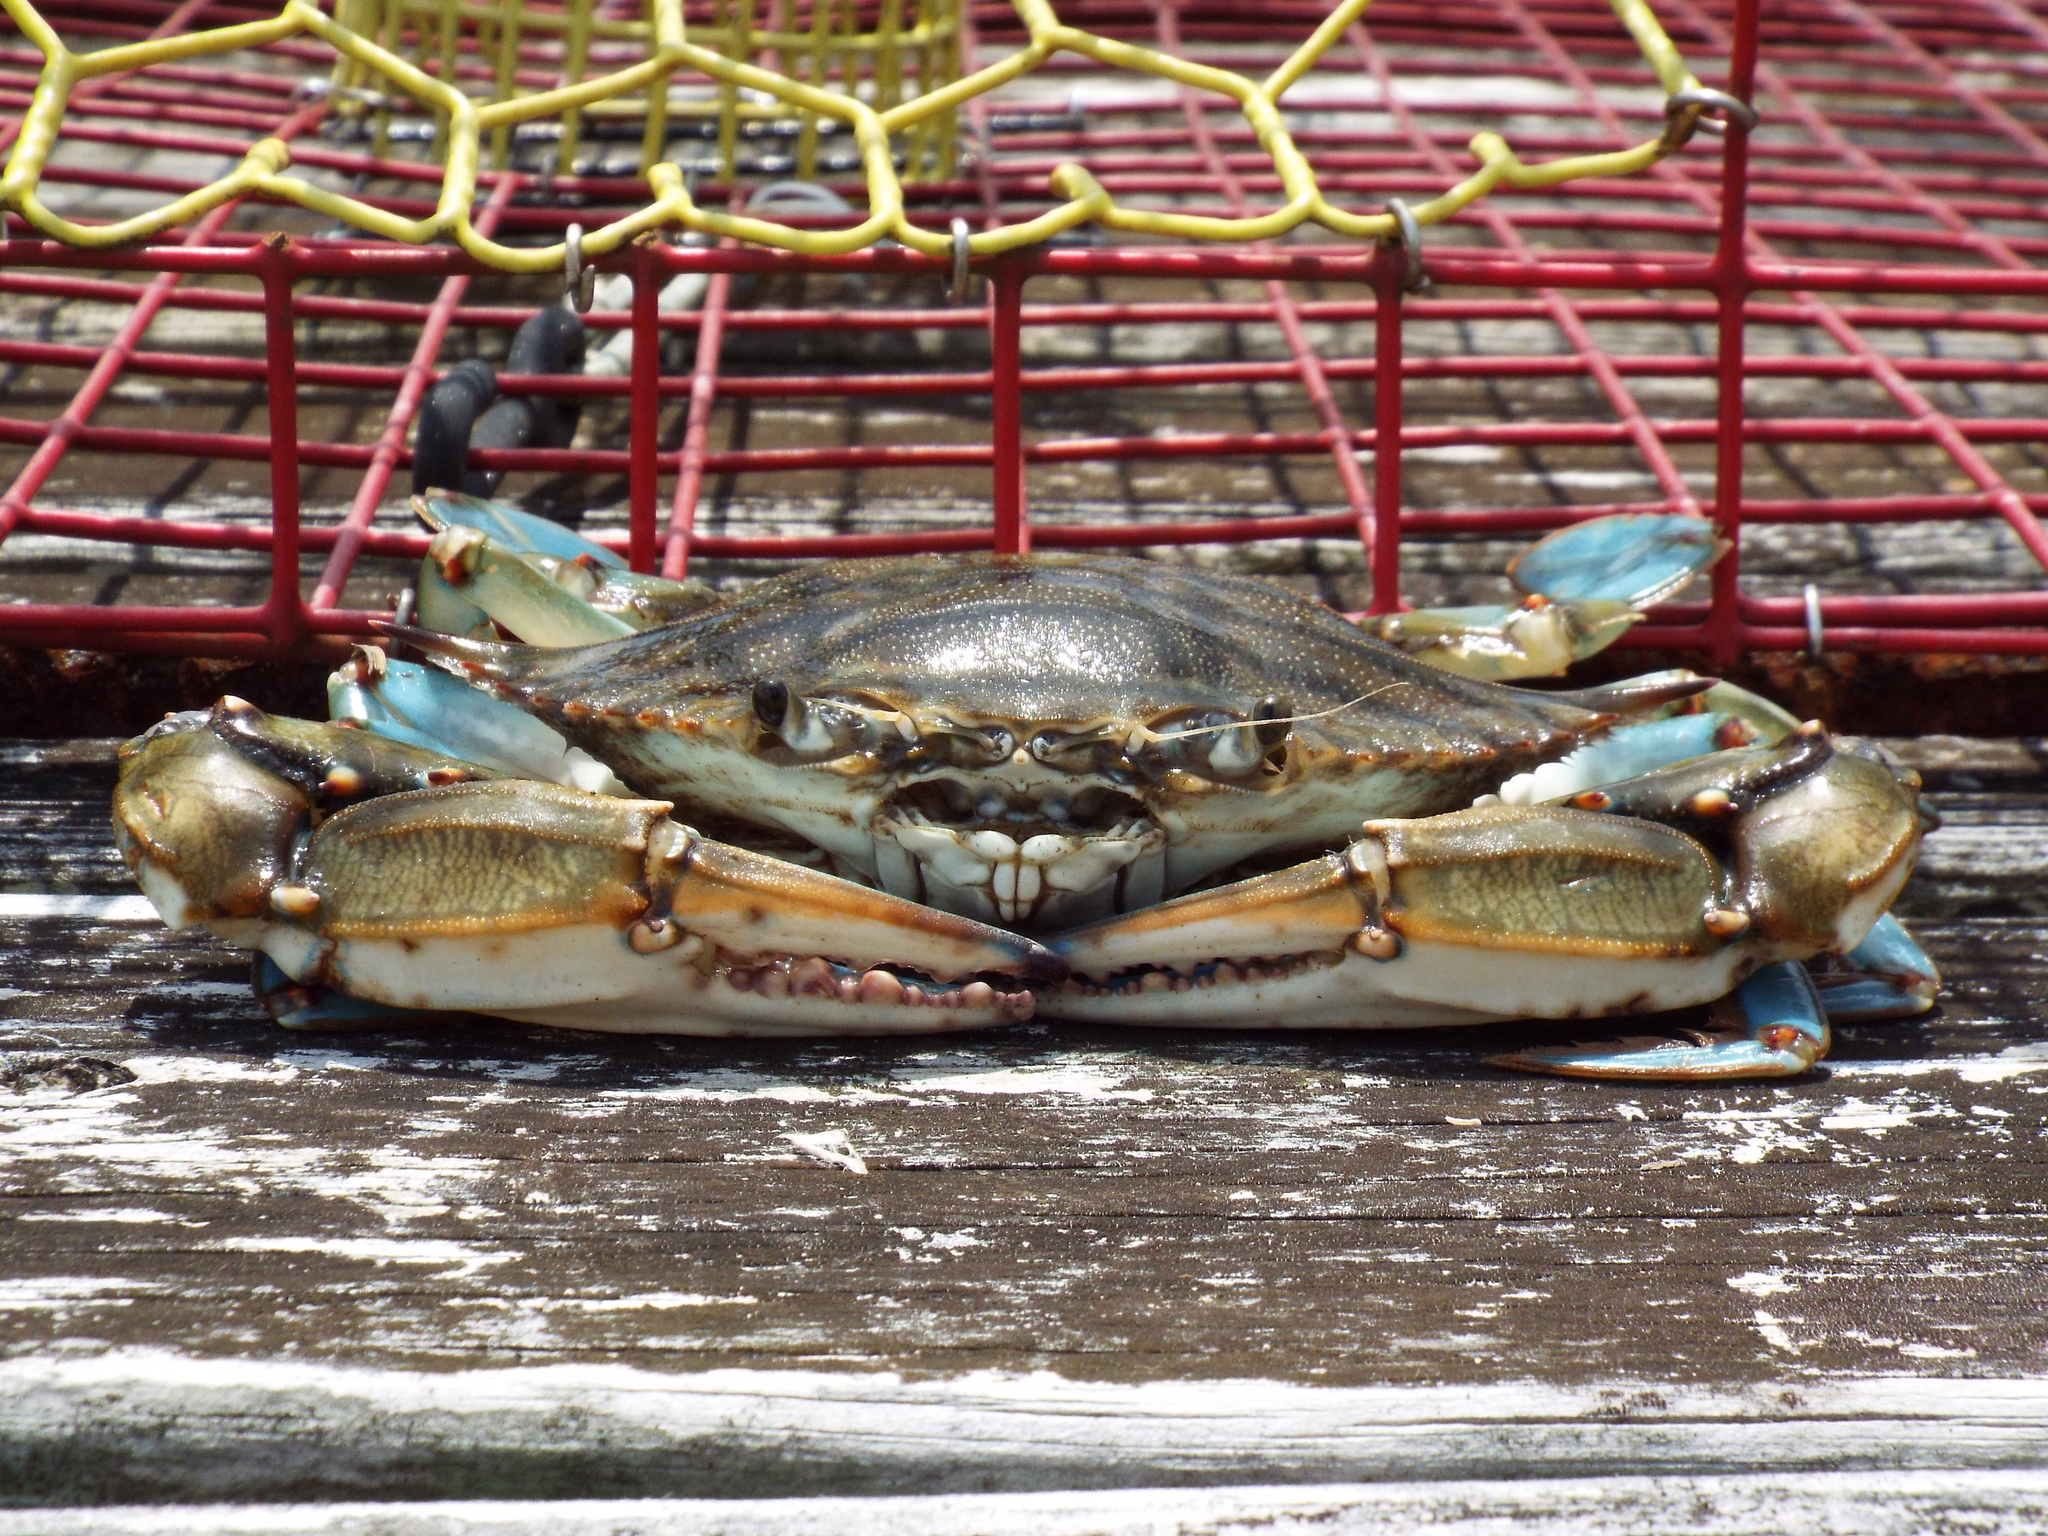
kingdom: Animalia
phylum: Arthropoda
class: Malacostraca
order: Decapoda
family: Portunidae
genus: Callinectes
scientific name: Callinectes sapidus
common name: Blue crab
